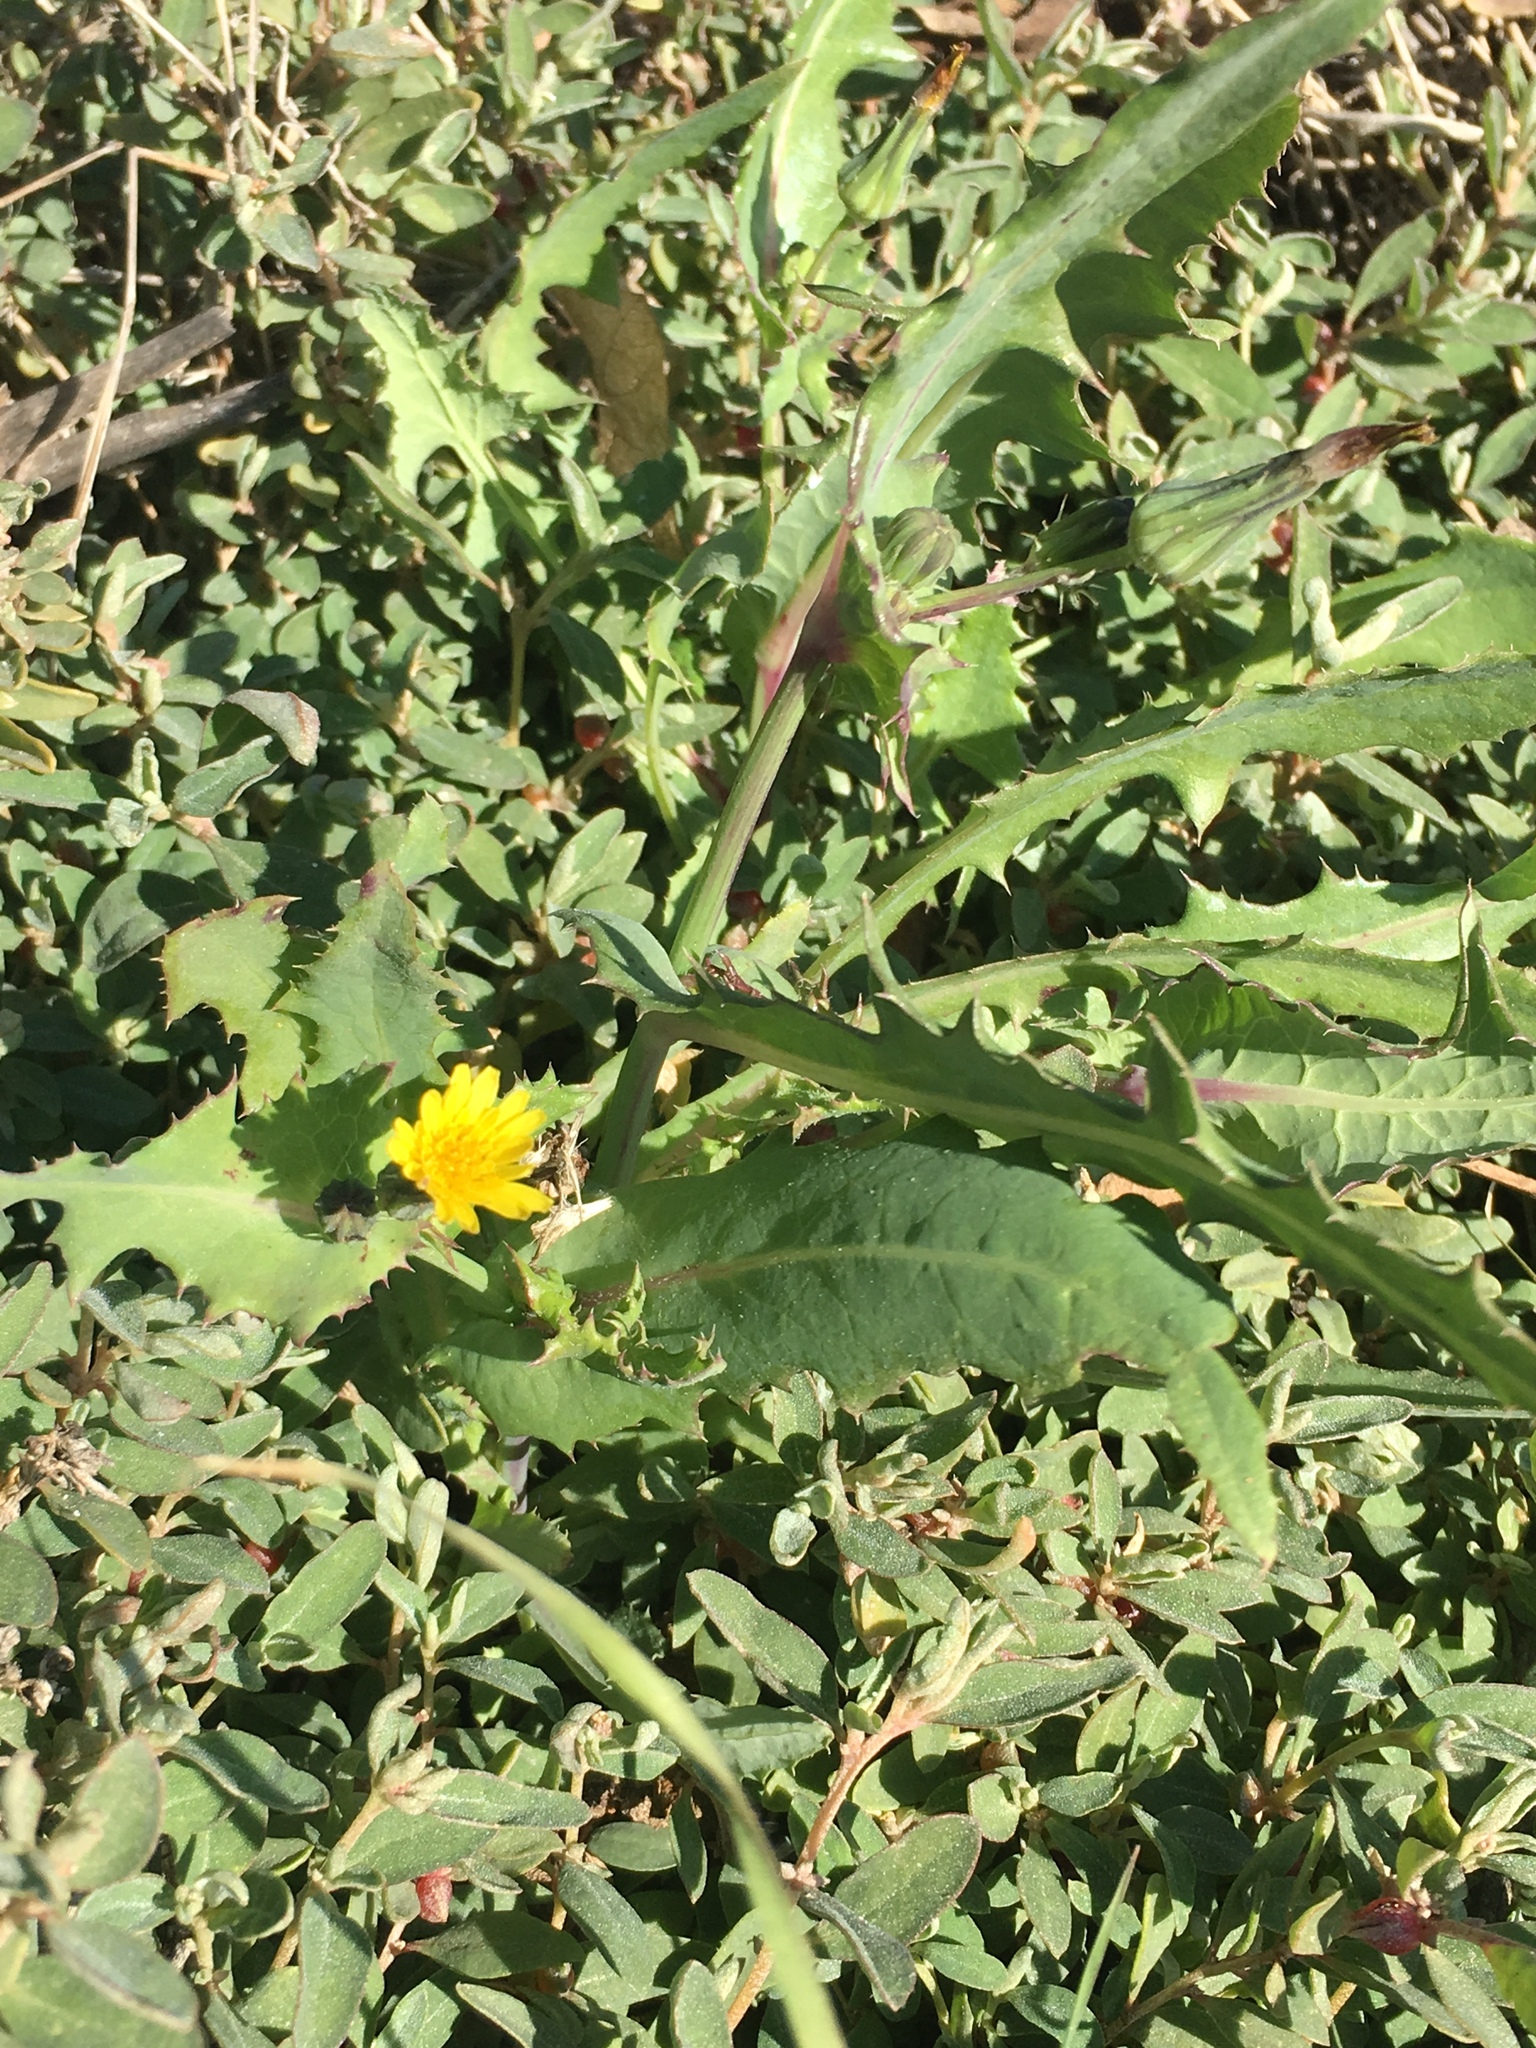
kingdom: Plantae
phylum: Tracheophyta
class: Magnoliopsida
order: Asterales
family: Asteraceae
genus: Sonchus
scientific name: Sonchus oleraceus
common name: Common sowthistle
